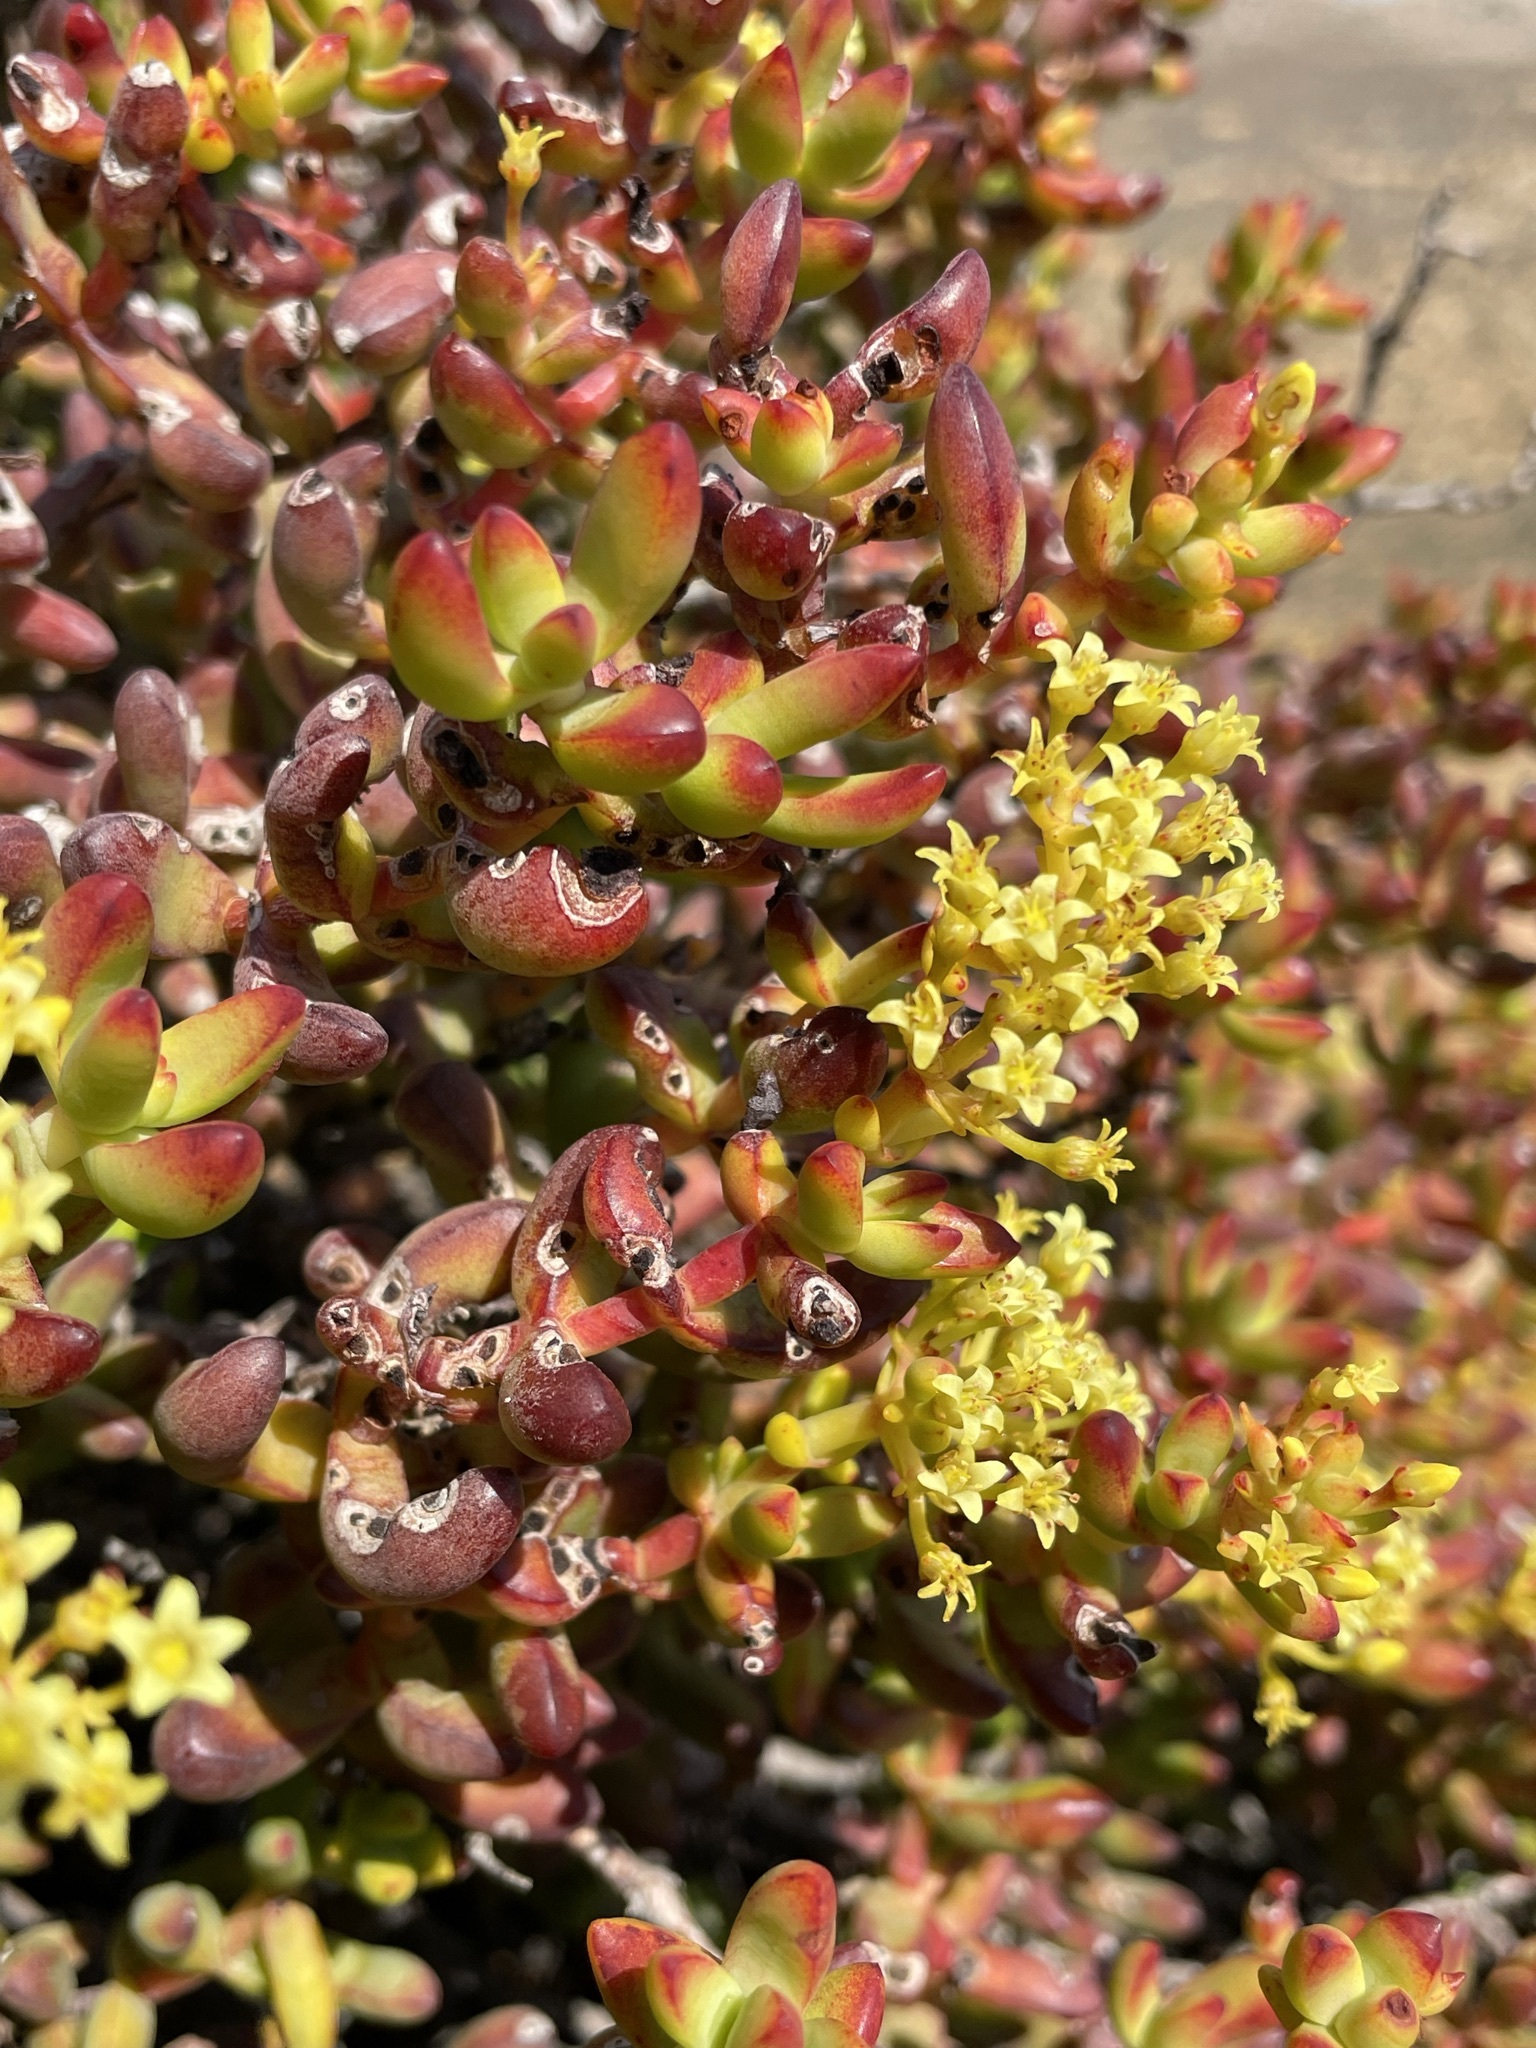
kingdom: Plantae
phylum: Tracheophyta
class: Magnoliopsida
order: Saxifragales
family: Crassulaceae
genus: Crassula
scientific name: Crassula brevifolia
